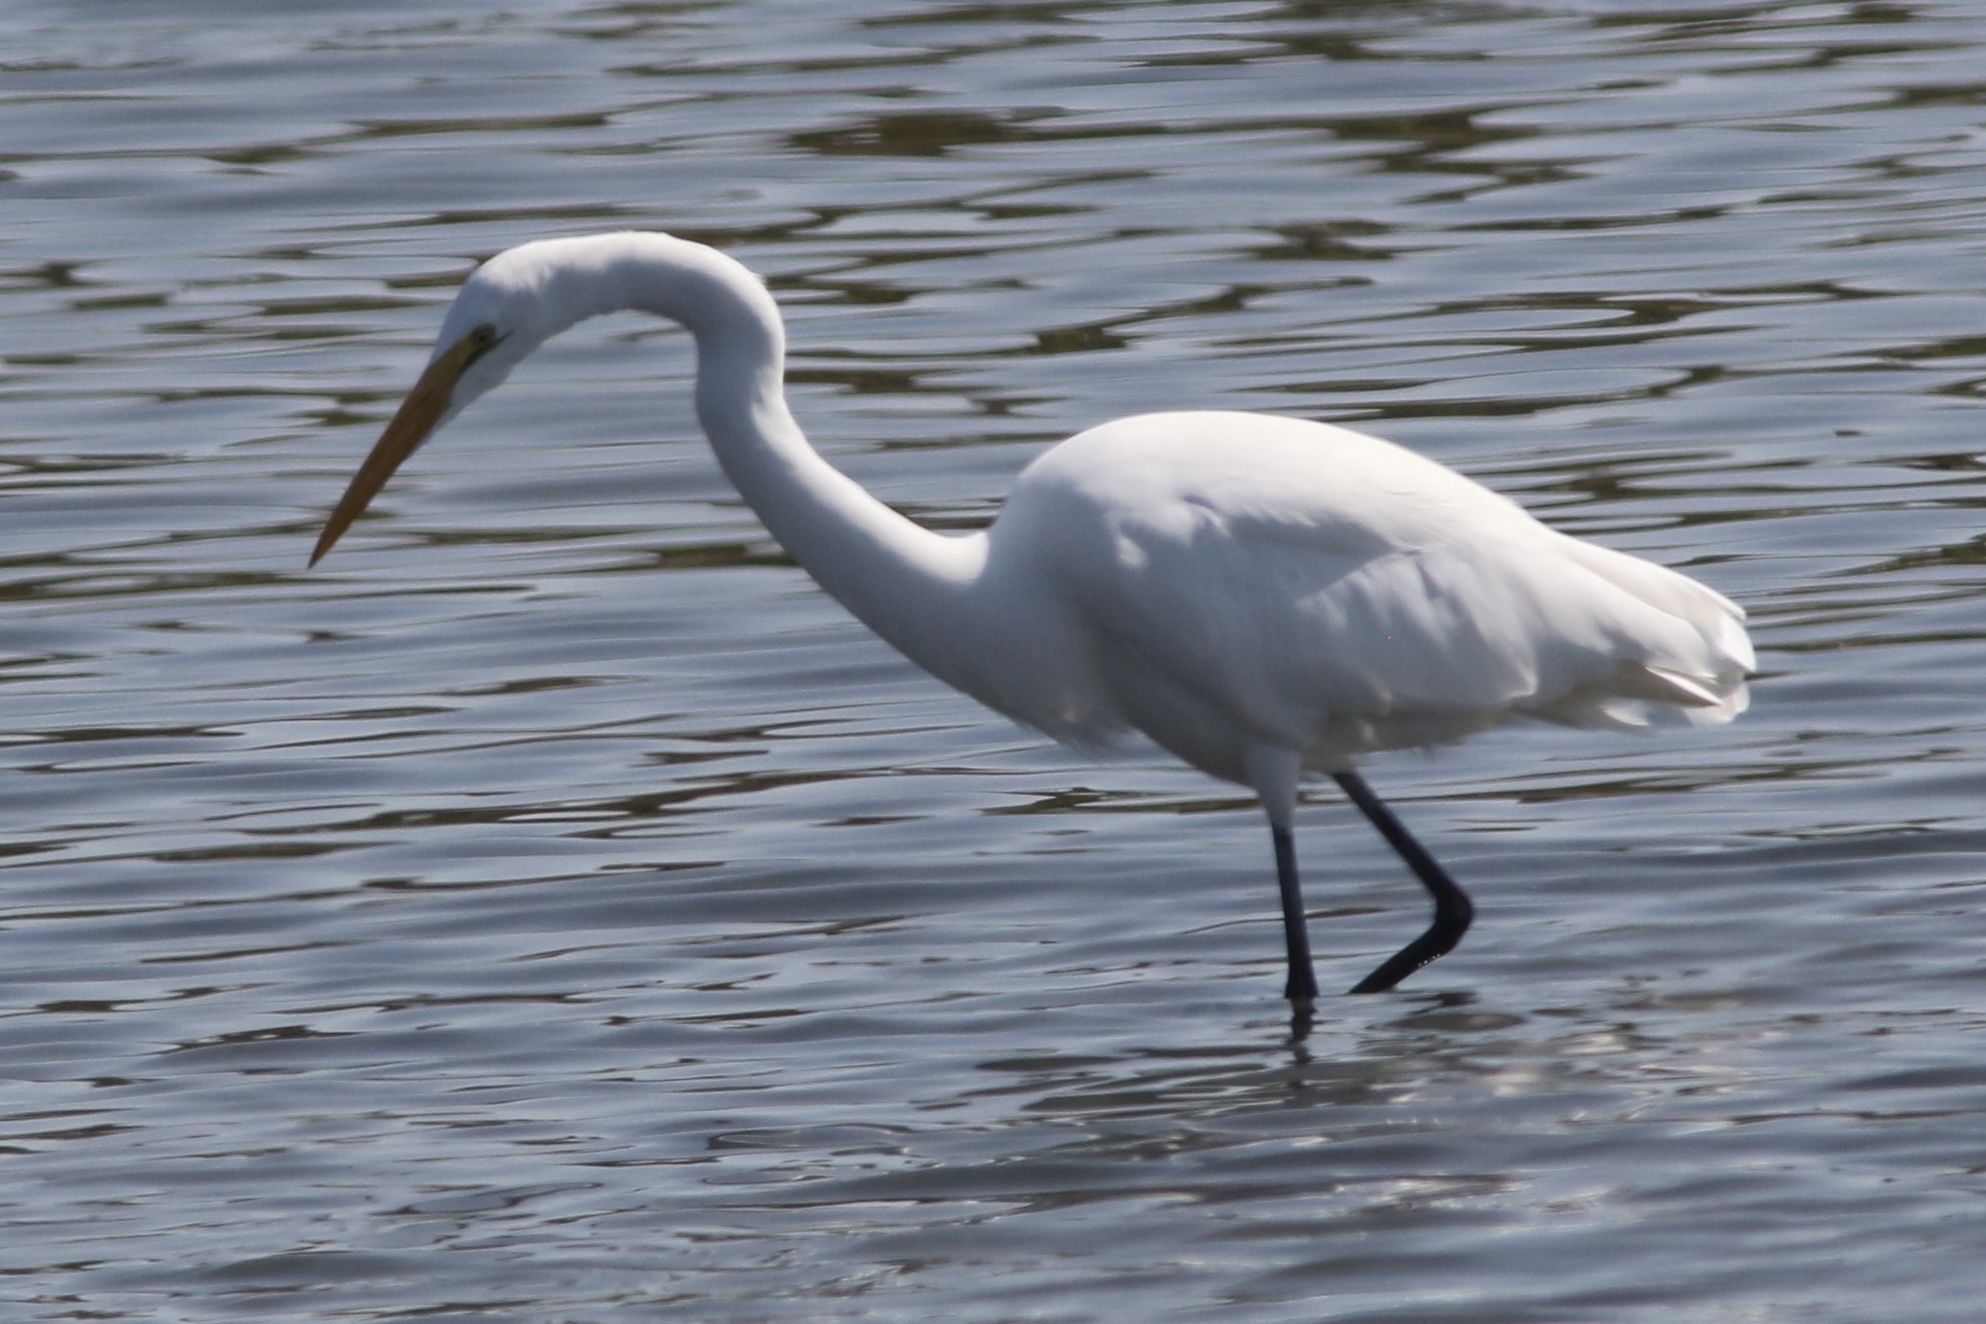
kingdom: Animalia
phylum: Chordata
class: Aves
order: Pelecaniformes
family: Ardeidae
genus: Ardea
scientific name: Ardea alba
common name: Great egret
